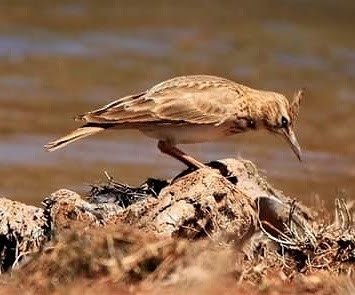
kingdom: Animalia
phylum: Chordata
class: Aves
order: Passeriformes
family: Alaudidae
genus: Galerida
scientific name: Galerida cristata
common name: Crested lark
